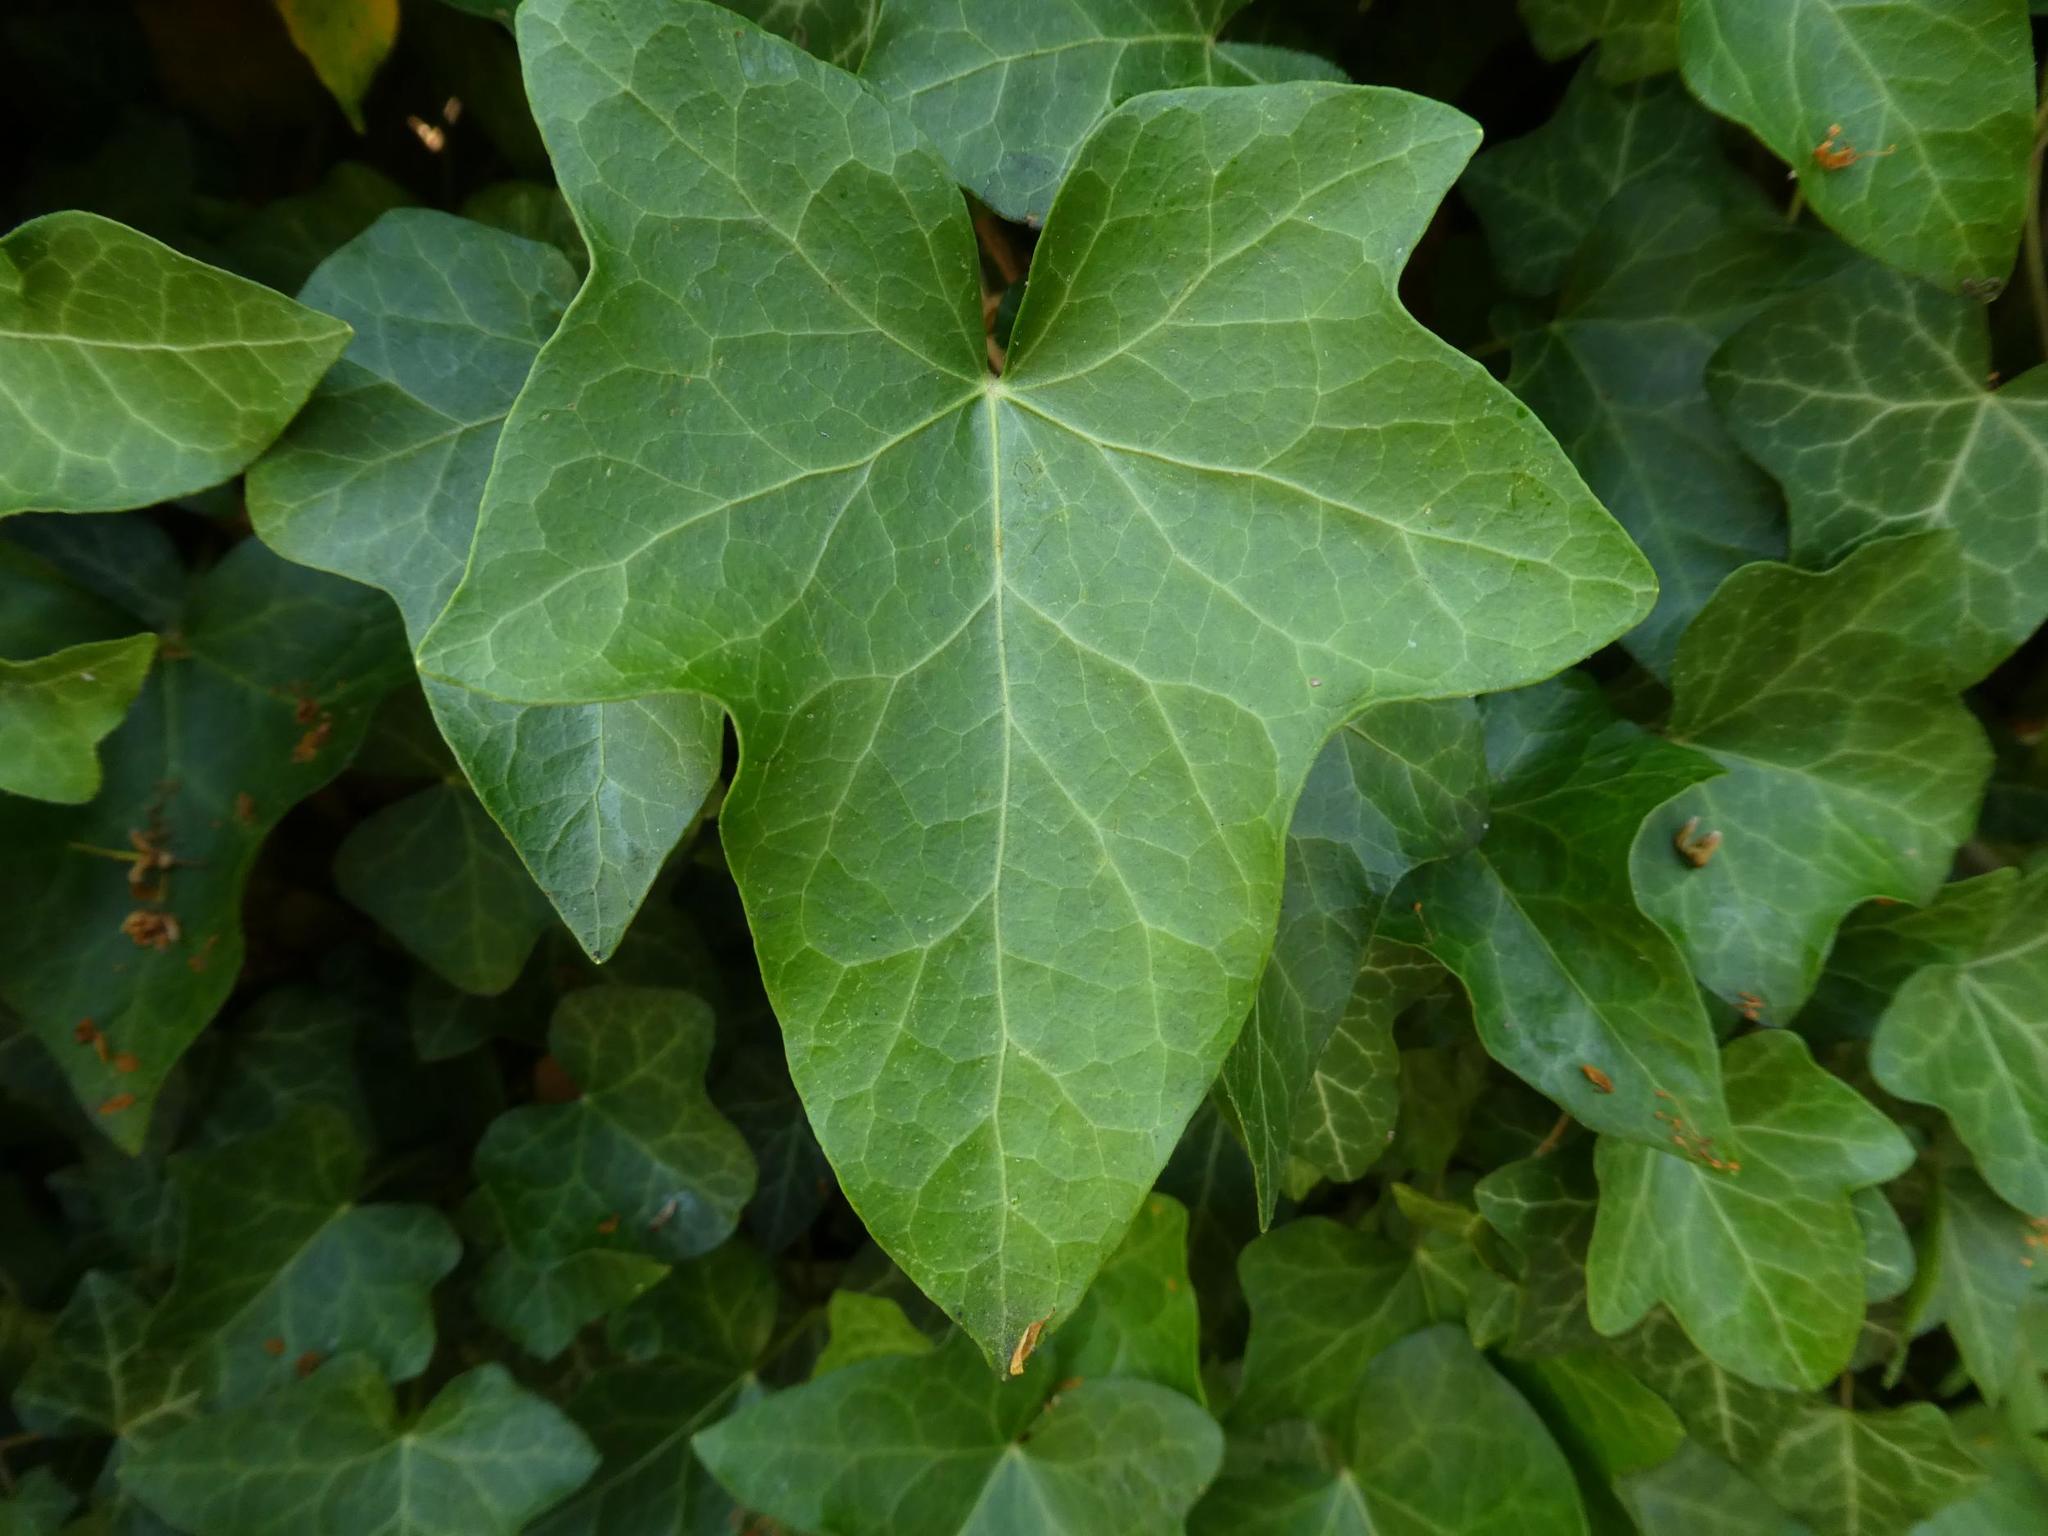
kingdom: Plantae
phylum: Tracheophyta
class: Magnoliopsida
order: Apiales
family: Araliaceae
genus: Hedera
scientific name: Hedera helix
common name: Ivy
